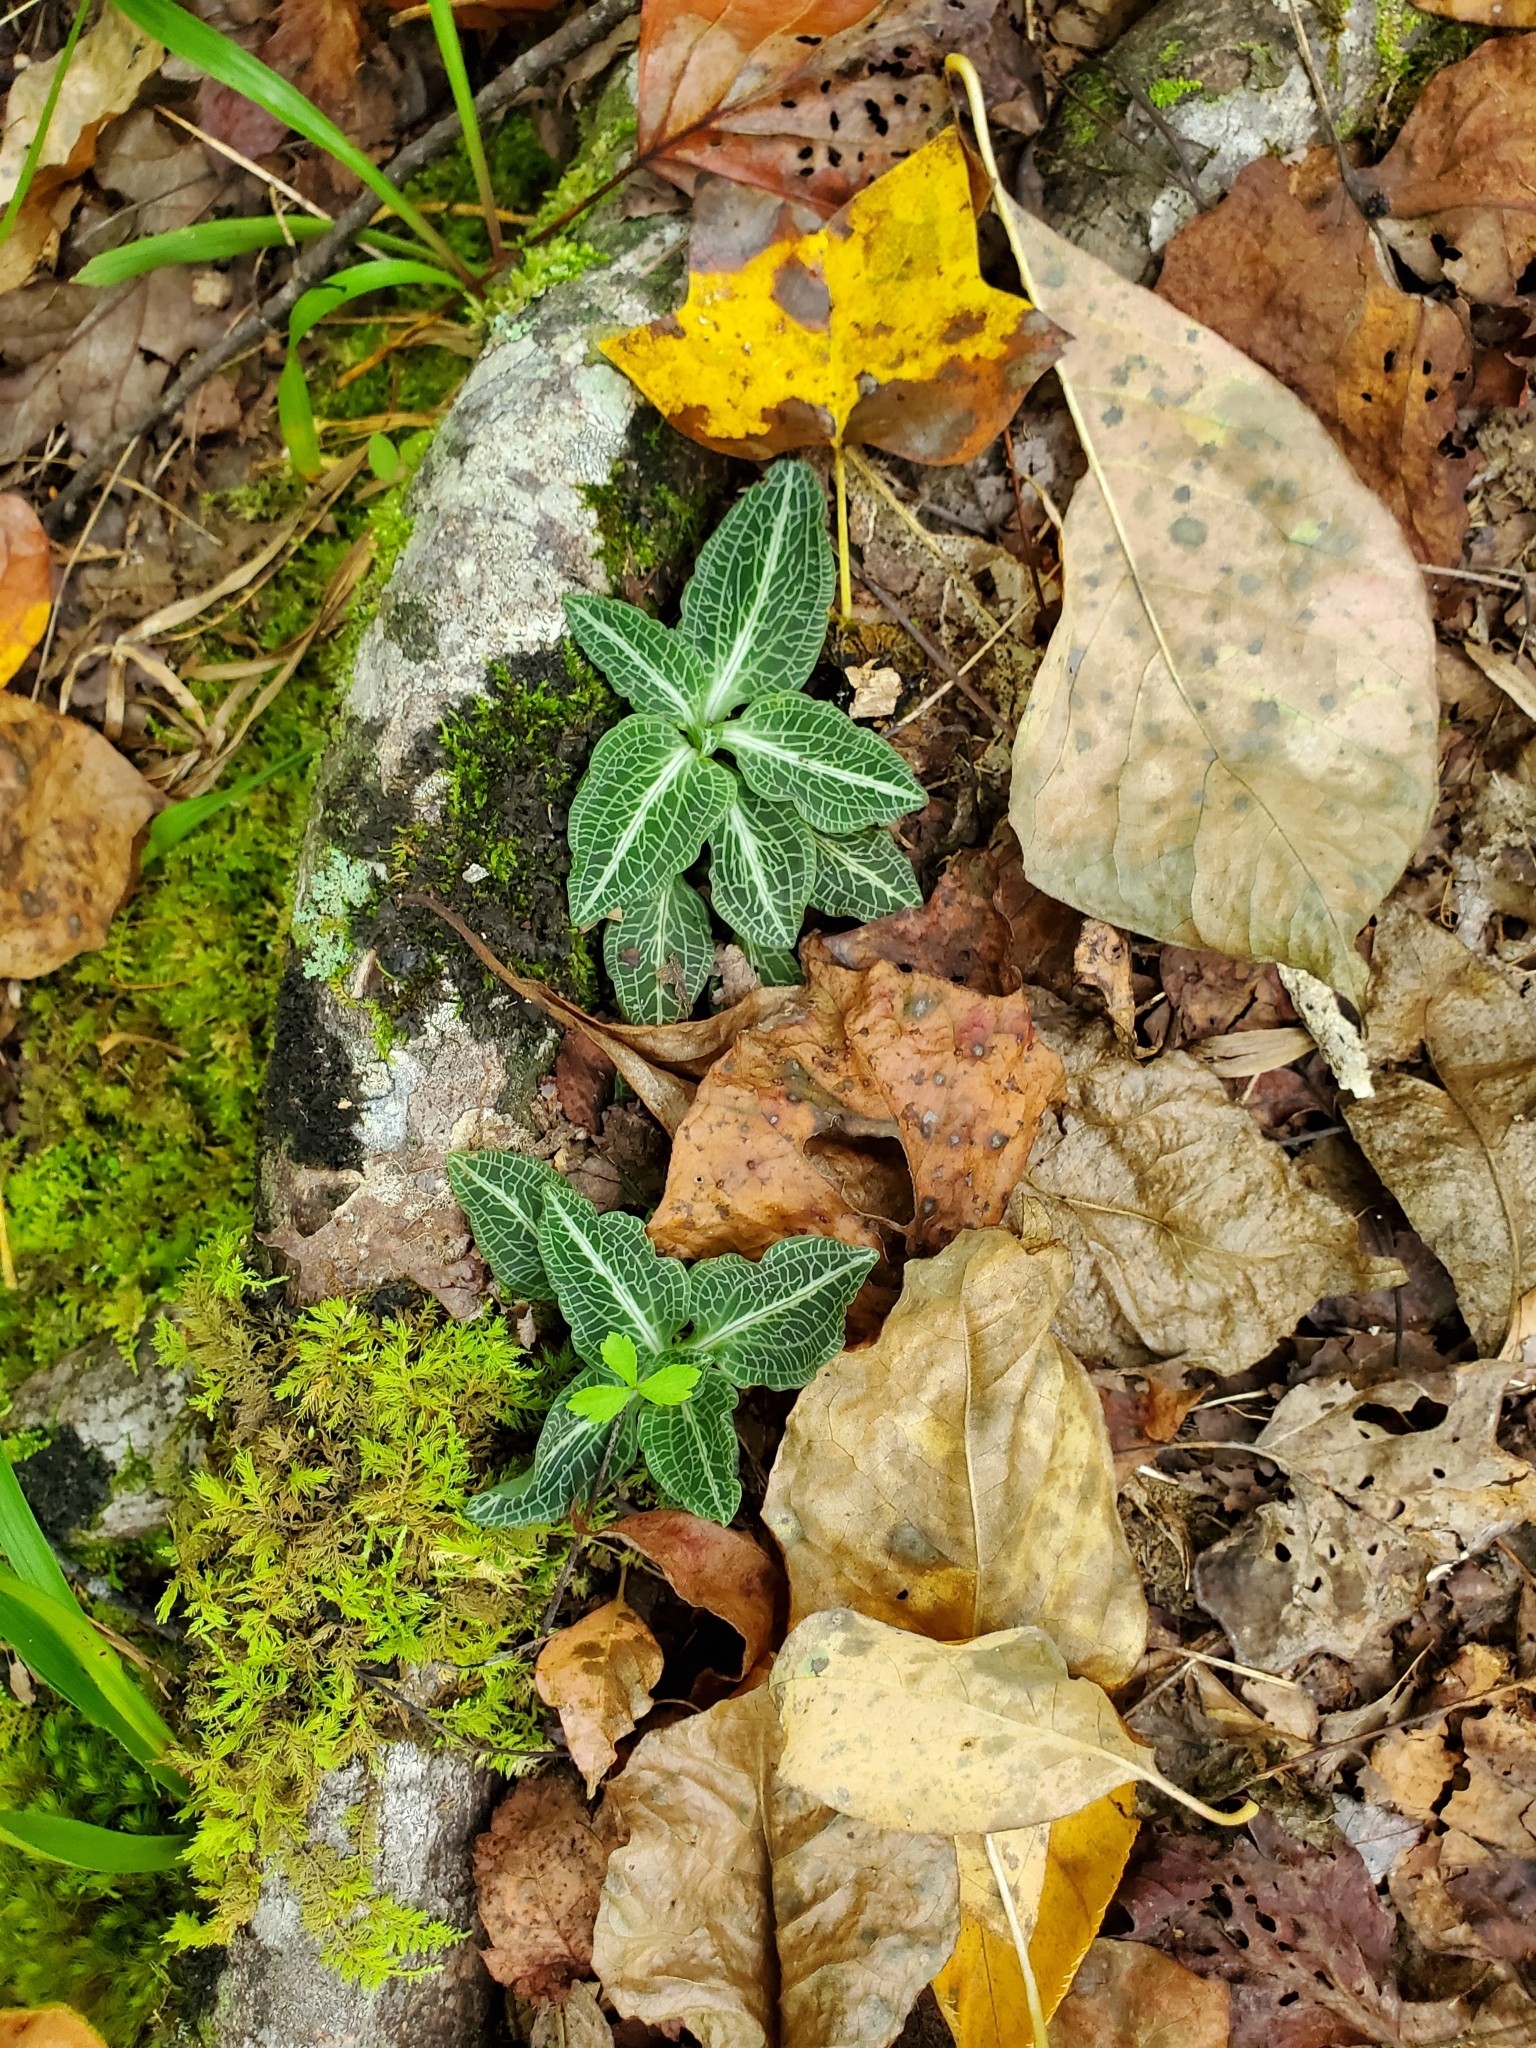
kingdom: Plantae
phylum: Tracheophyta
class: Liliopsida
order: Asparagales
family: Orchidaceae
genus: Goodyera
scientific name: Goodyera pubescens
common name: Downy rattlesnake-plantain
